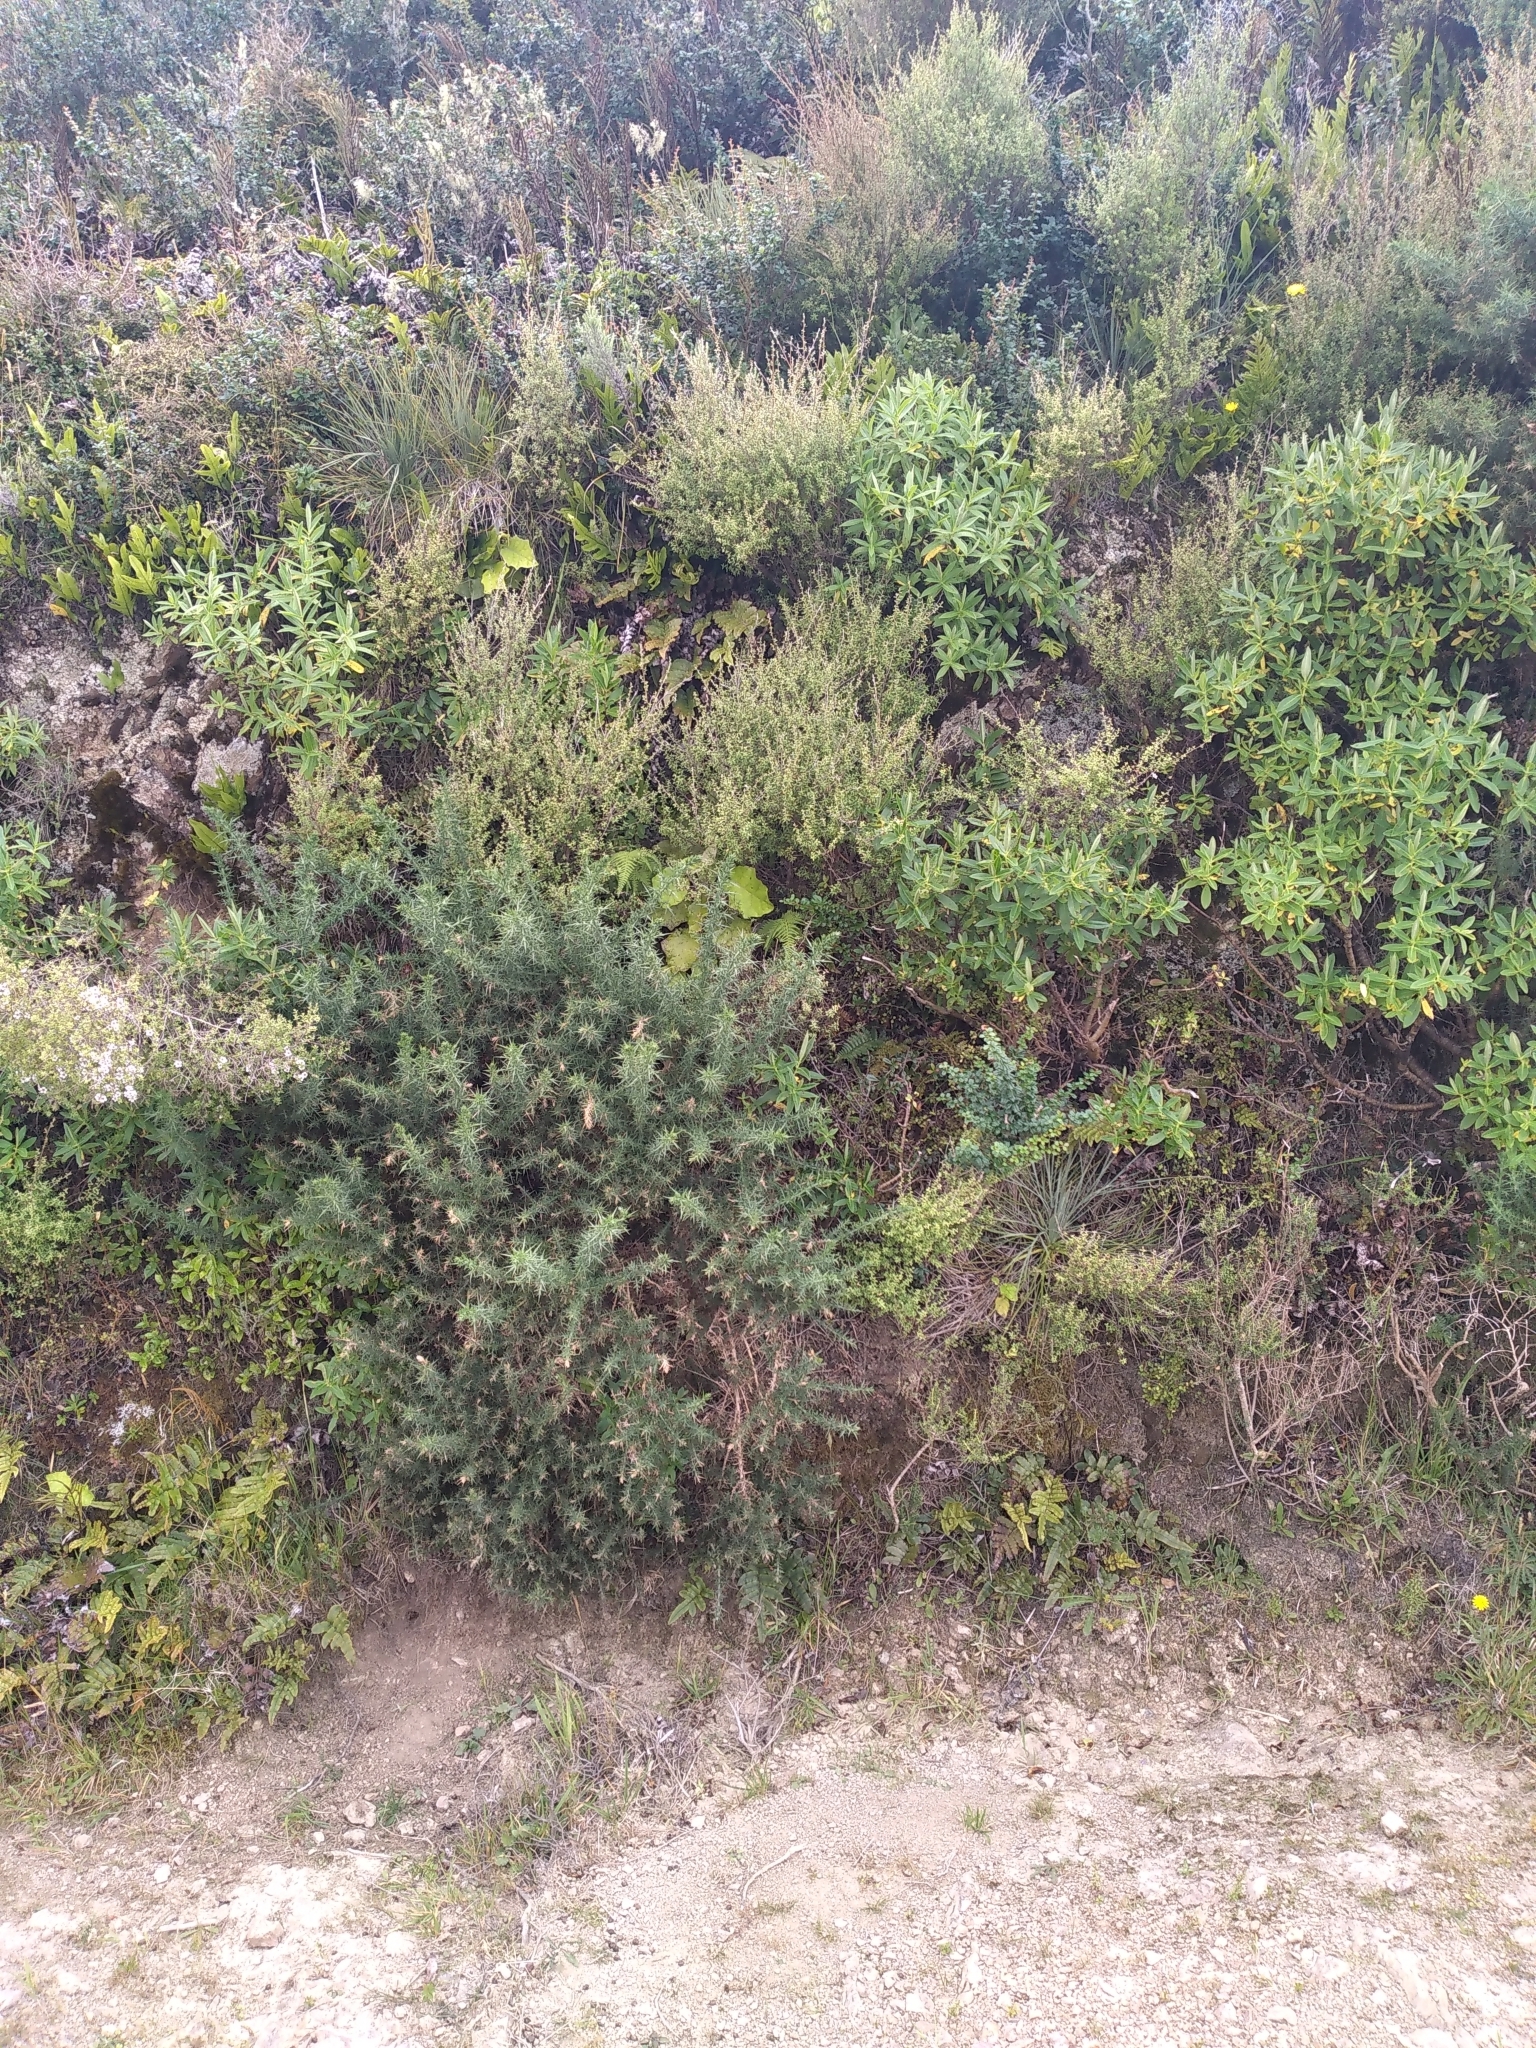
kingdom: Plantae
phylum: Tracheophyta
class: Magnoliopsida
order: Apiales
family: Apiaceae
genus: Aciphylla
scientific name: Aciphylla squarrosa
